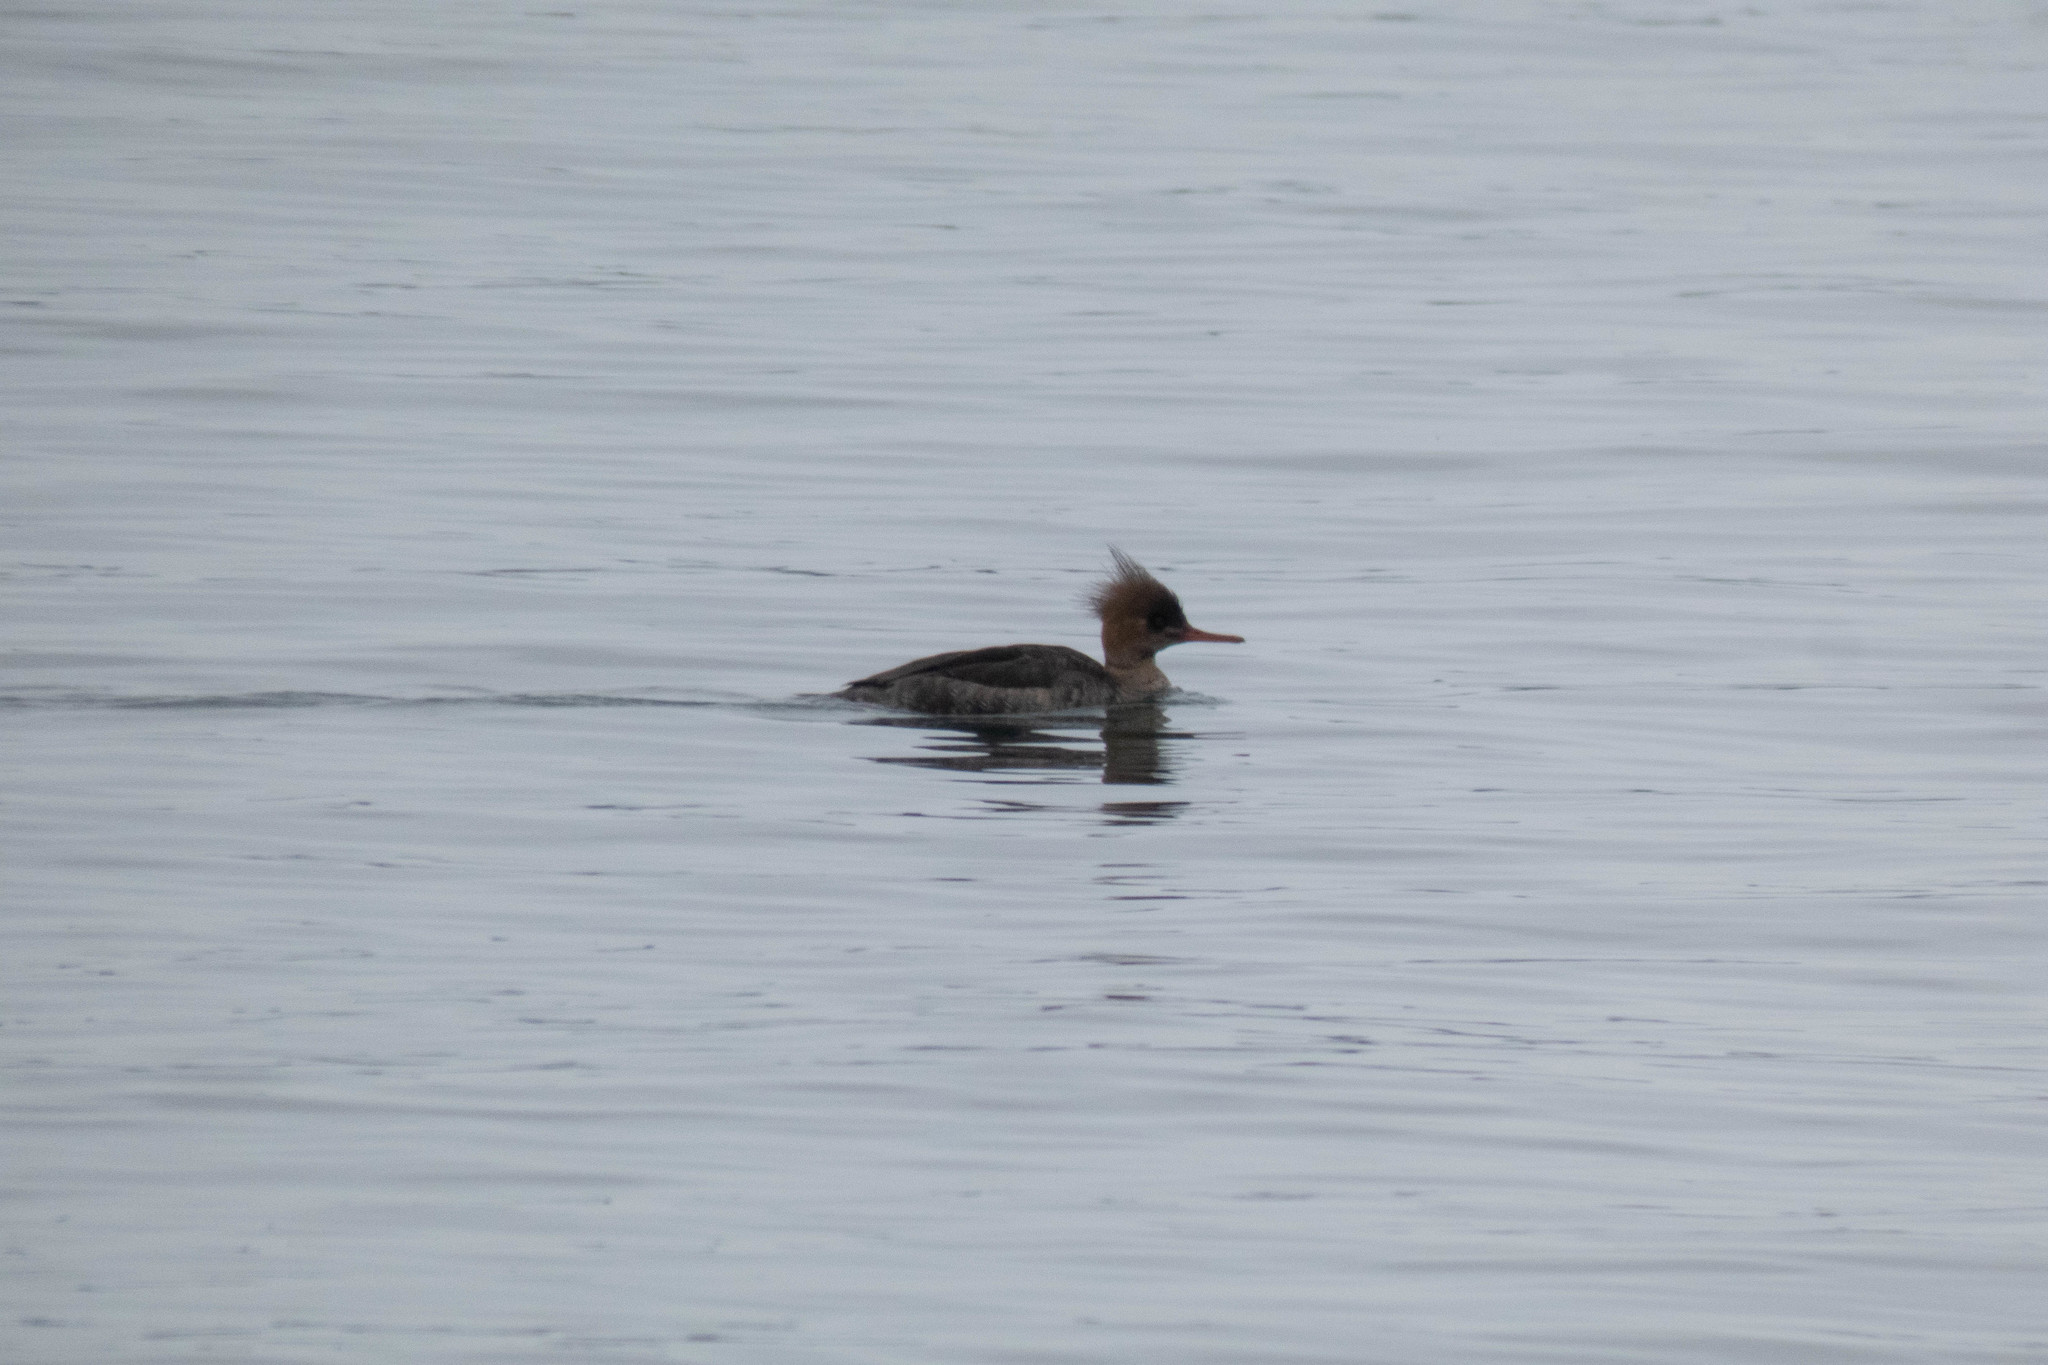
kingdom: Animalia
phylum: Chordata
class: Aves
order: Anseriformes
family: Anatidae
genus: Mergus
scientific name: Mergus serrator
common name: Red-breasted merganser
